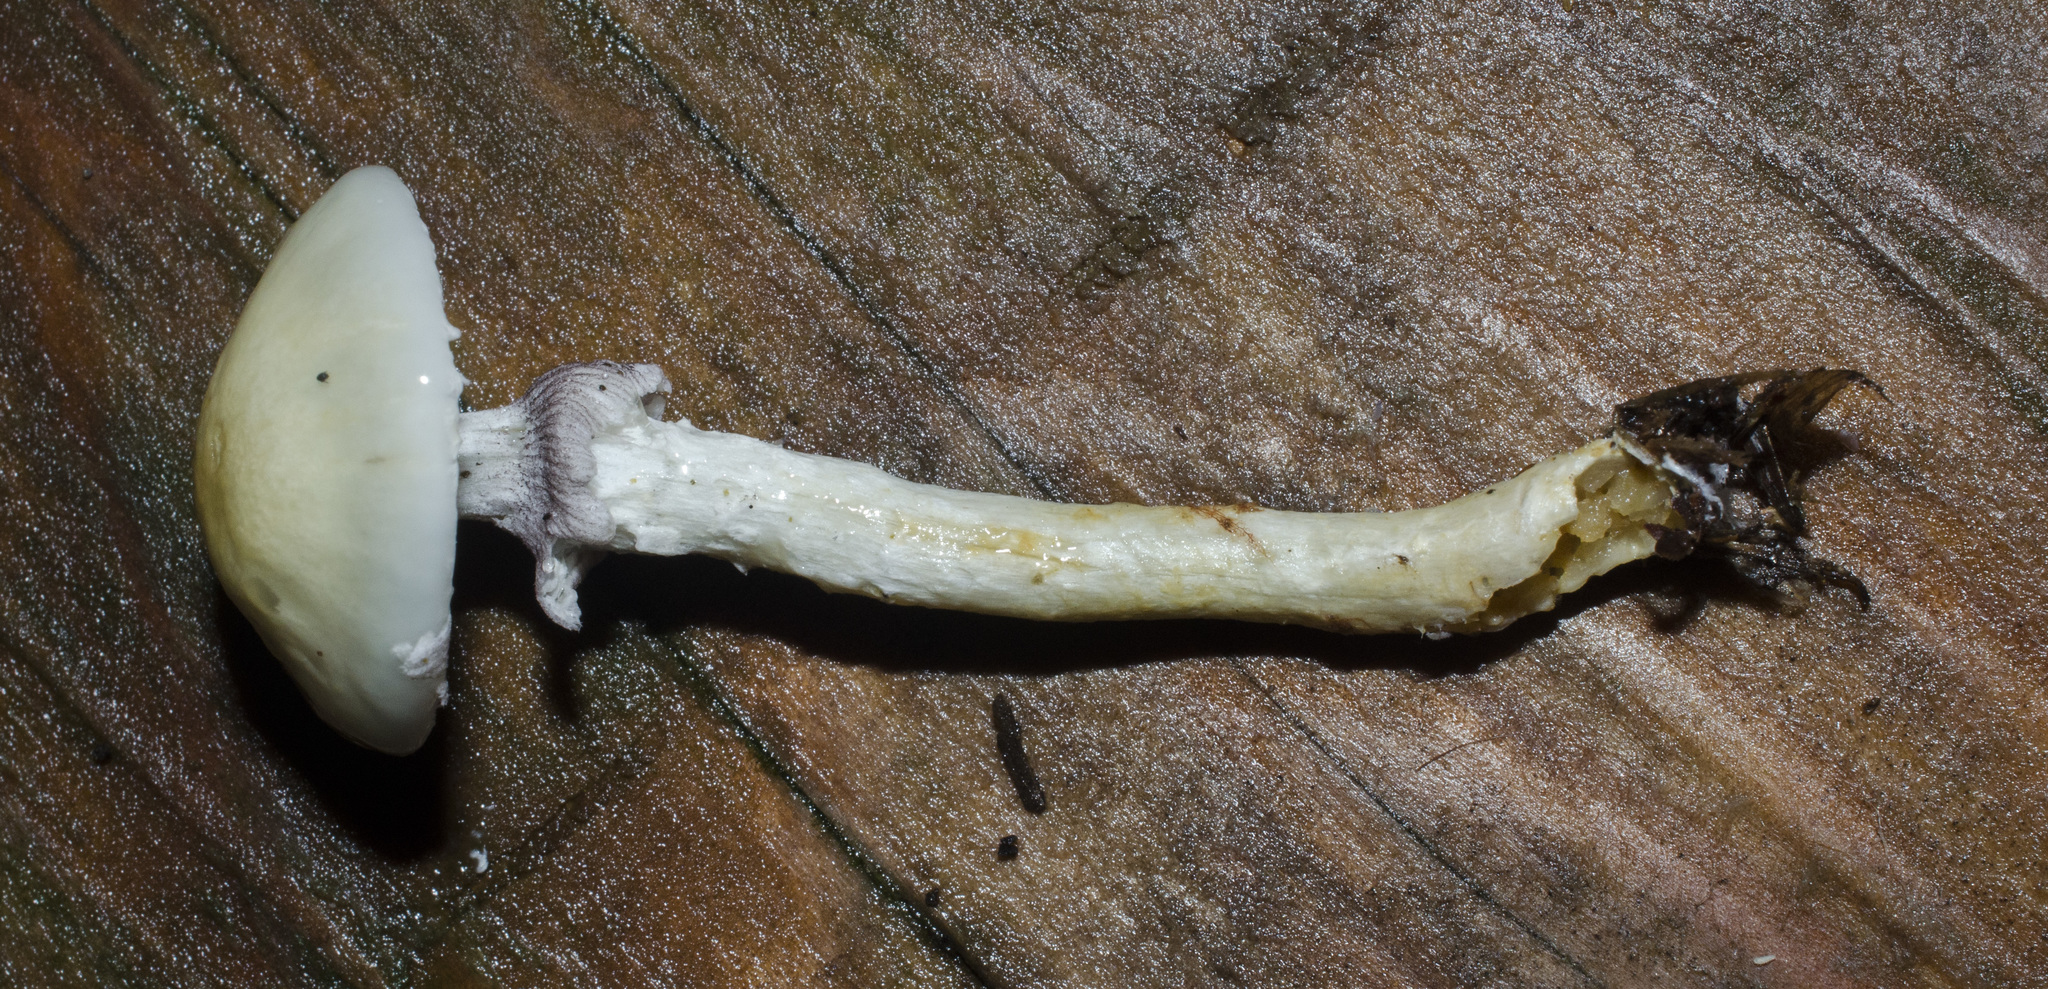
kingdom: Fungi
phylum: Basidiomycota
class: Agaricomycetes
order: Agaricales
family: Strophariaceae
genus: Stropharia
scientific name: Stropharia aeruginosa
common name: Verdigris roundhead
